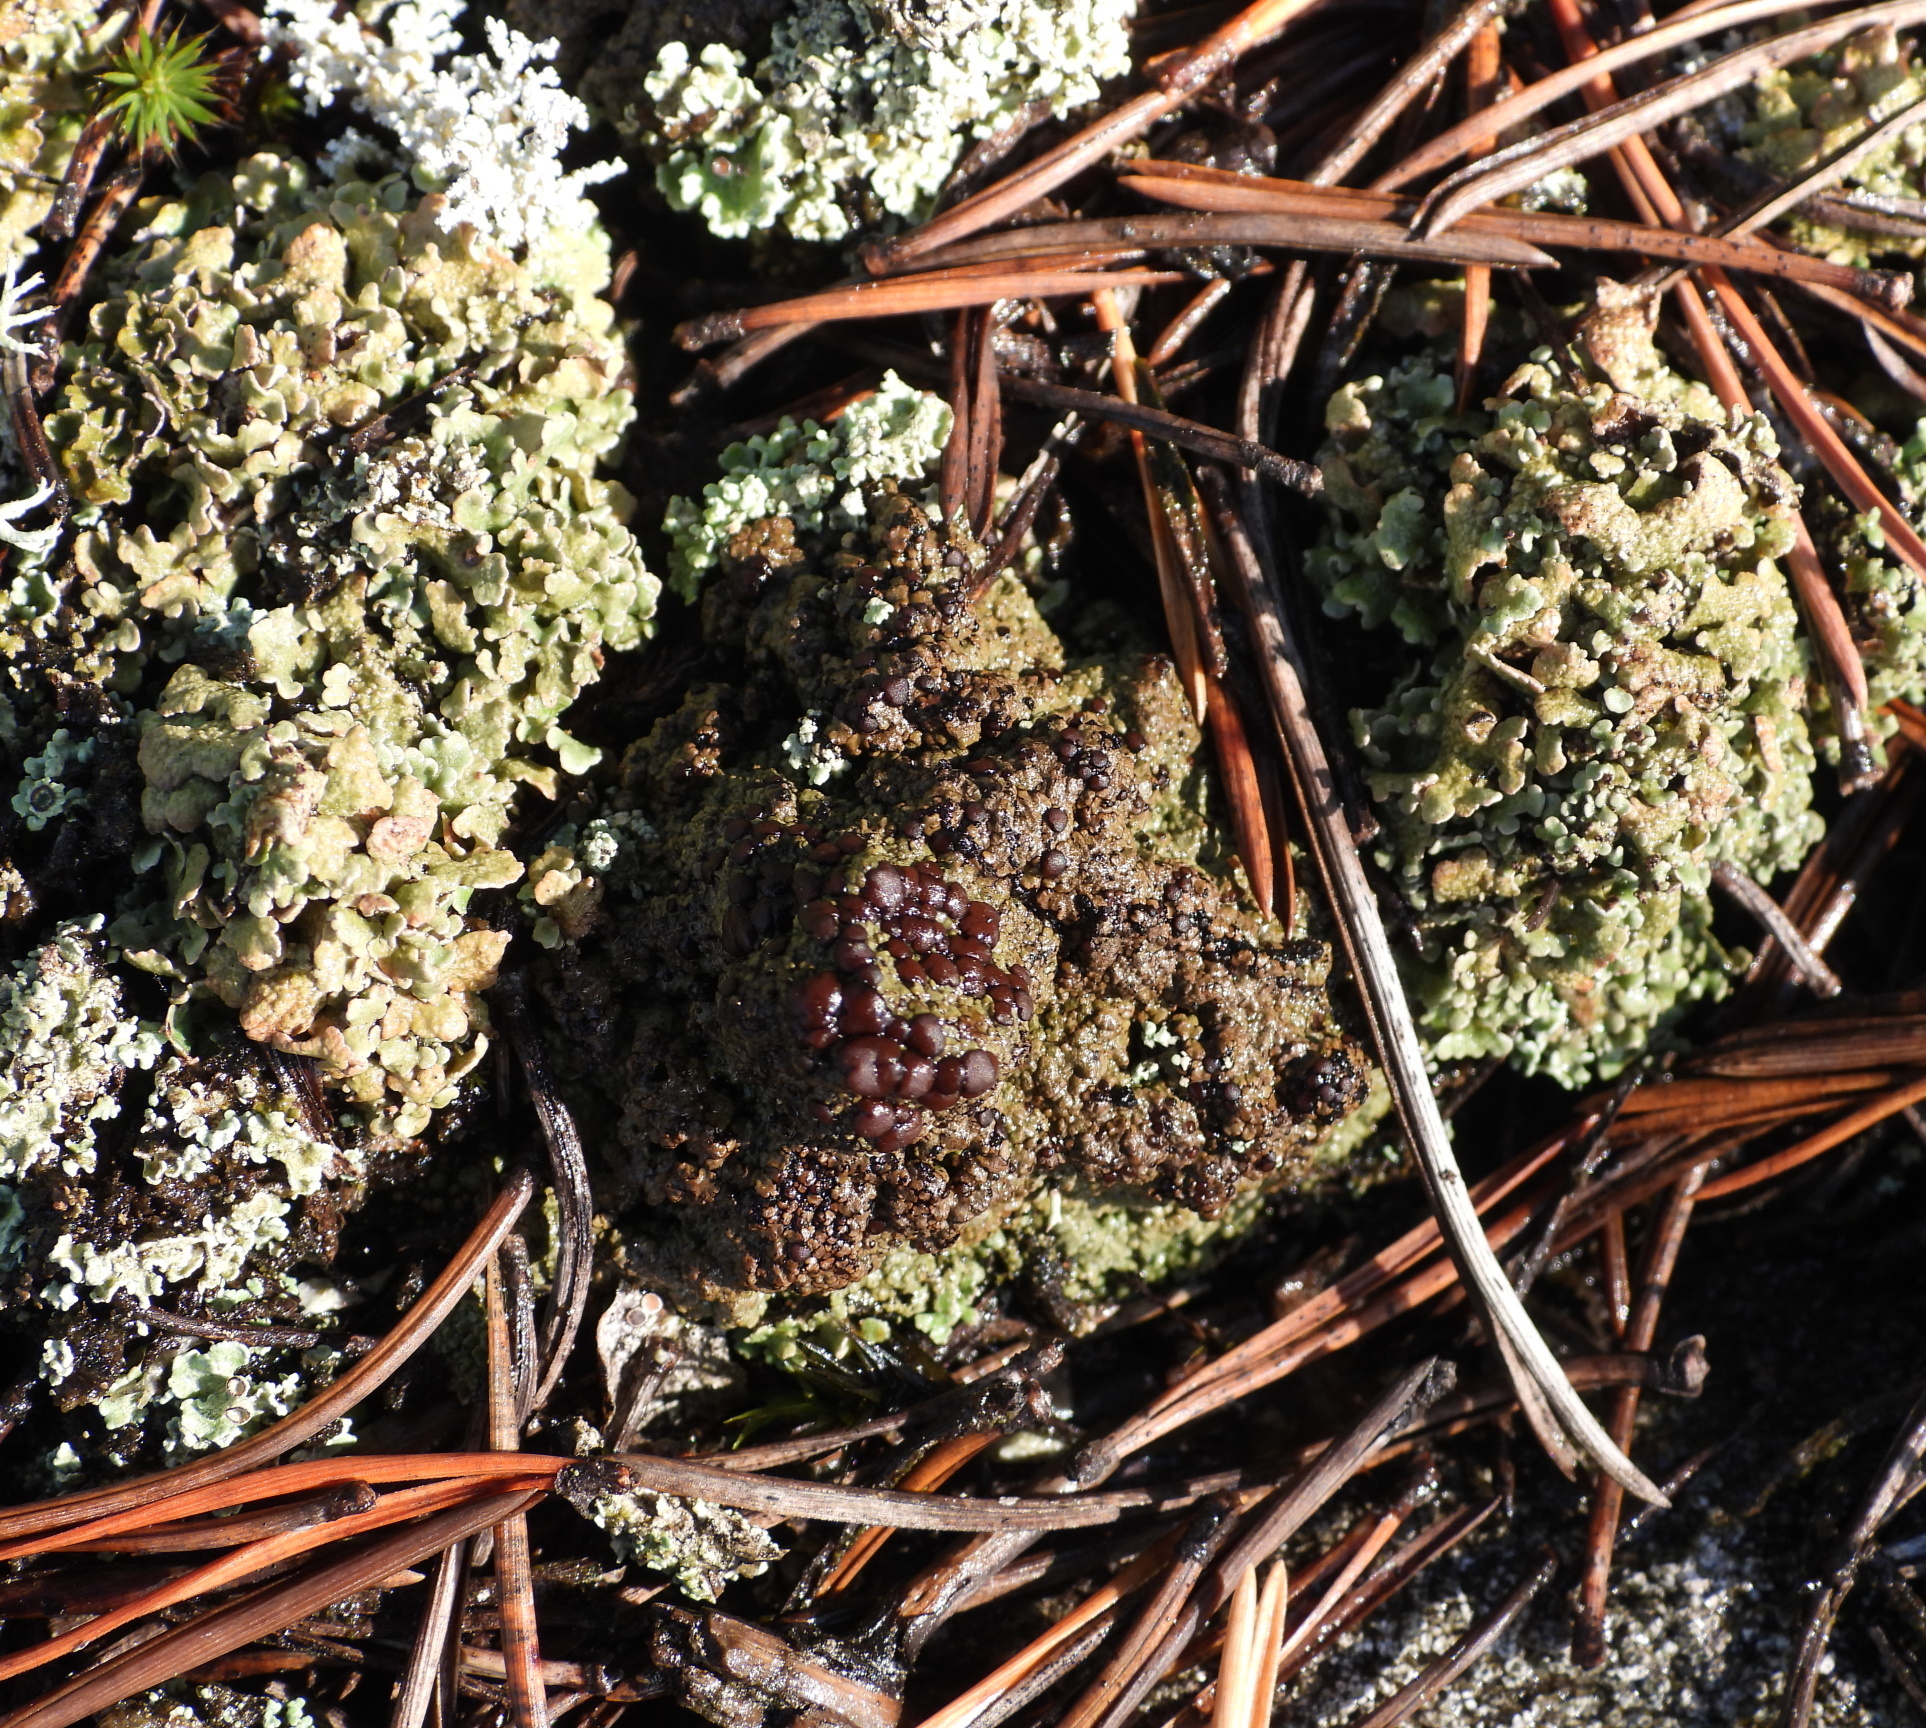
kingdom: Fungi
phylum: Ascomycota
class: Lecanoromycetes
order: Baeomycetales
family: Trapeliaceae
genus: Placynthiella
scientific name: Placynthiella oligotropha
